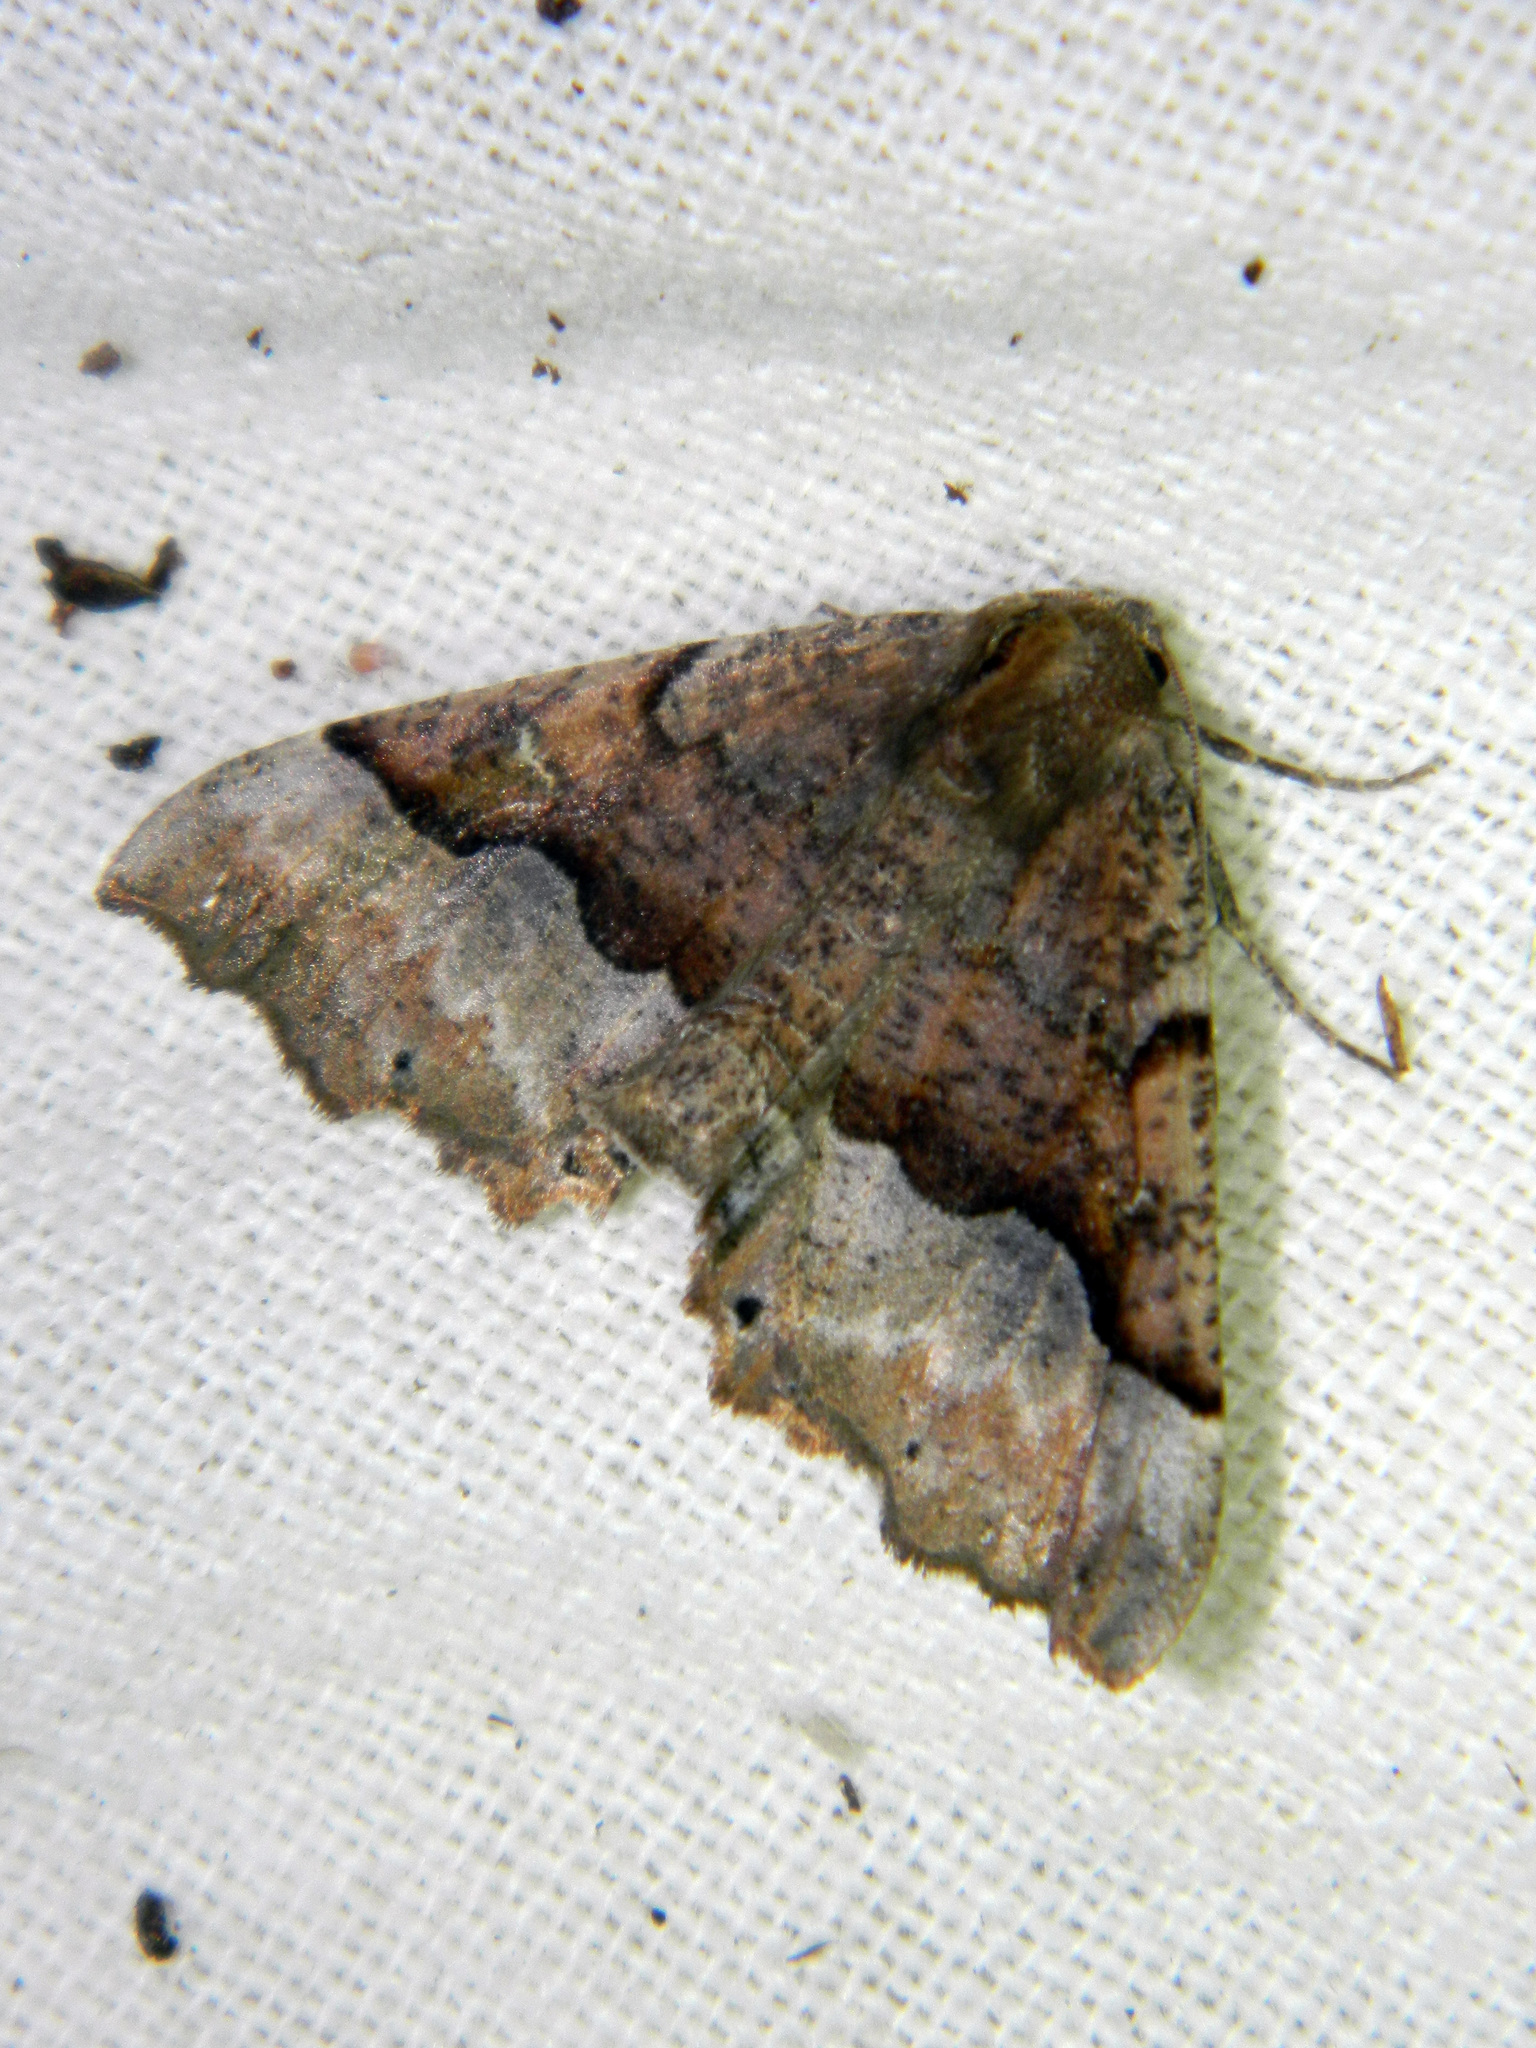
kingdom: Animalia
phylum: Arthropoda
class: Insecta
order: Lepidoptera
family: Geometridae
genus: Pero
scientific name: Pero morrisonaria
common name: Morrison's pero
